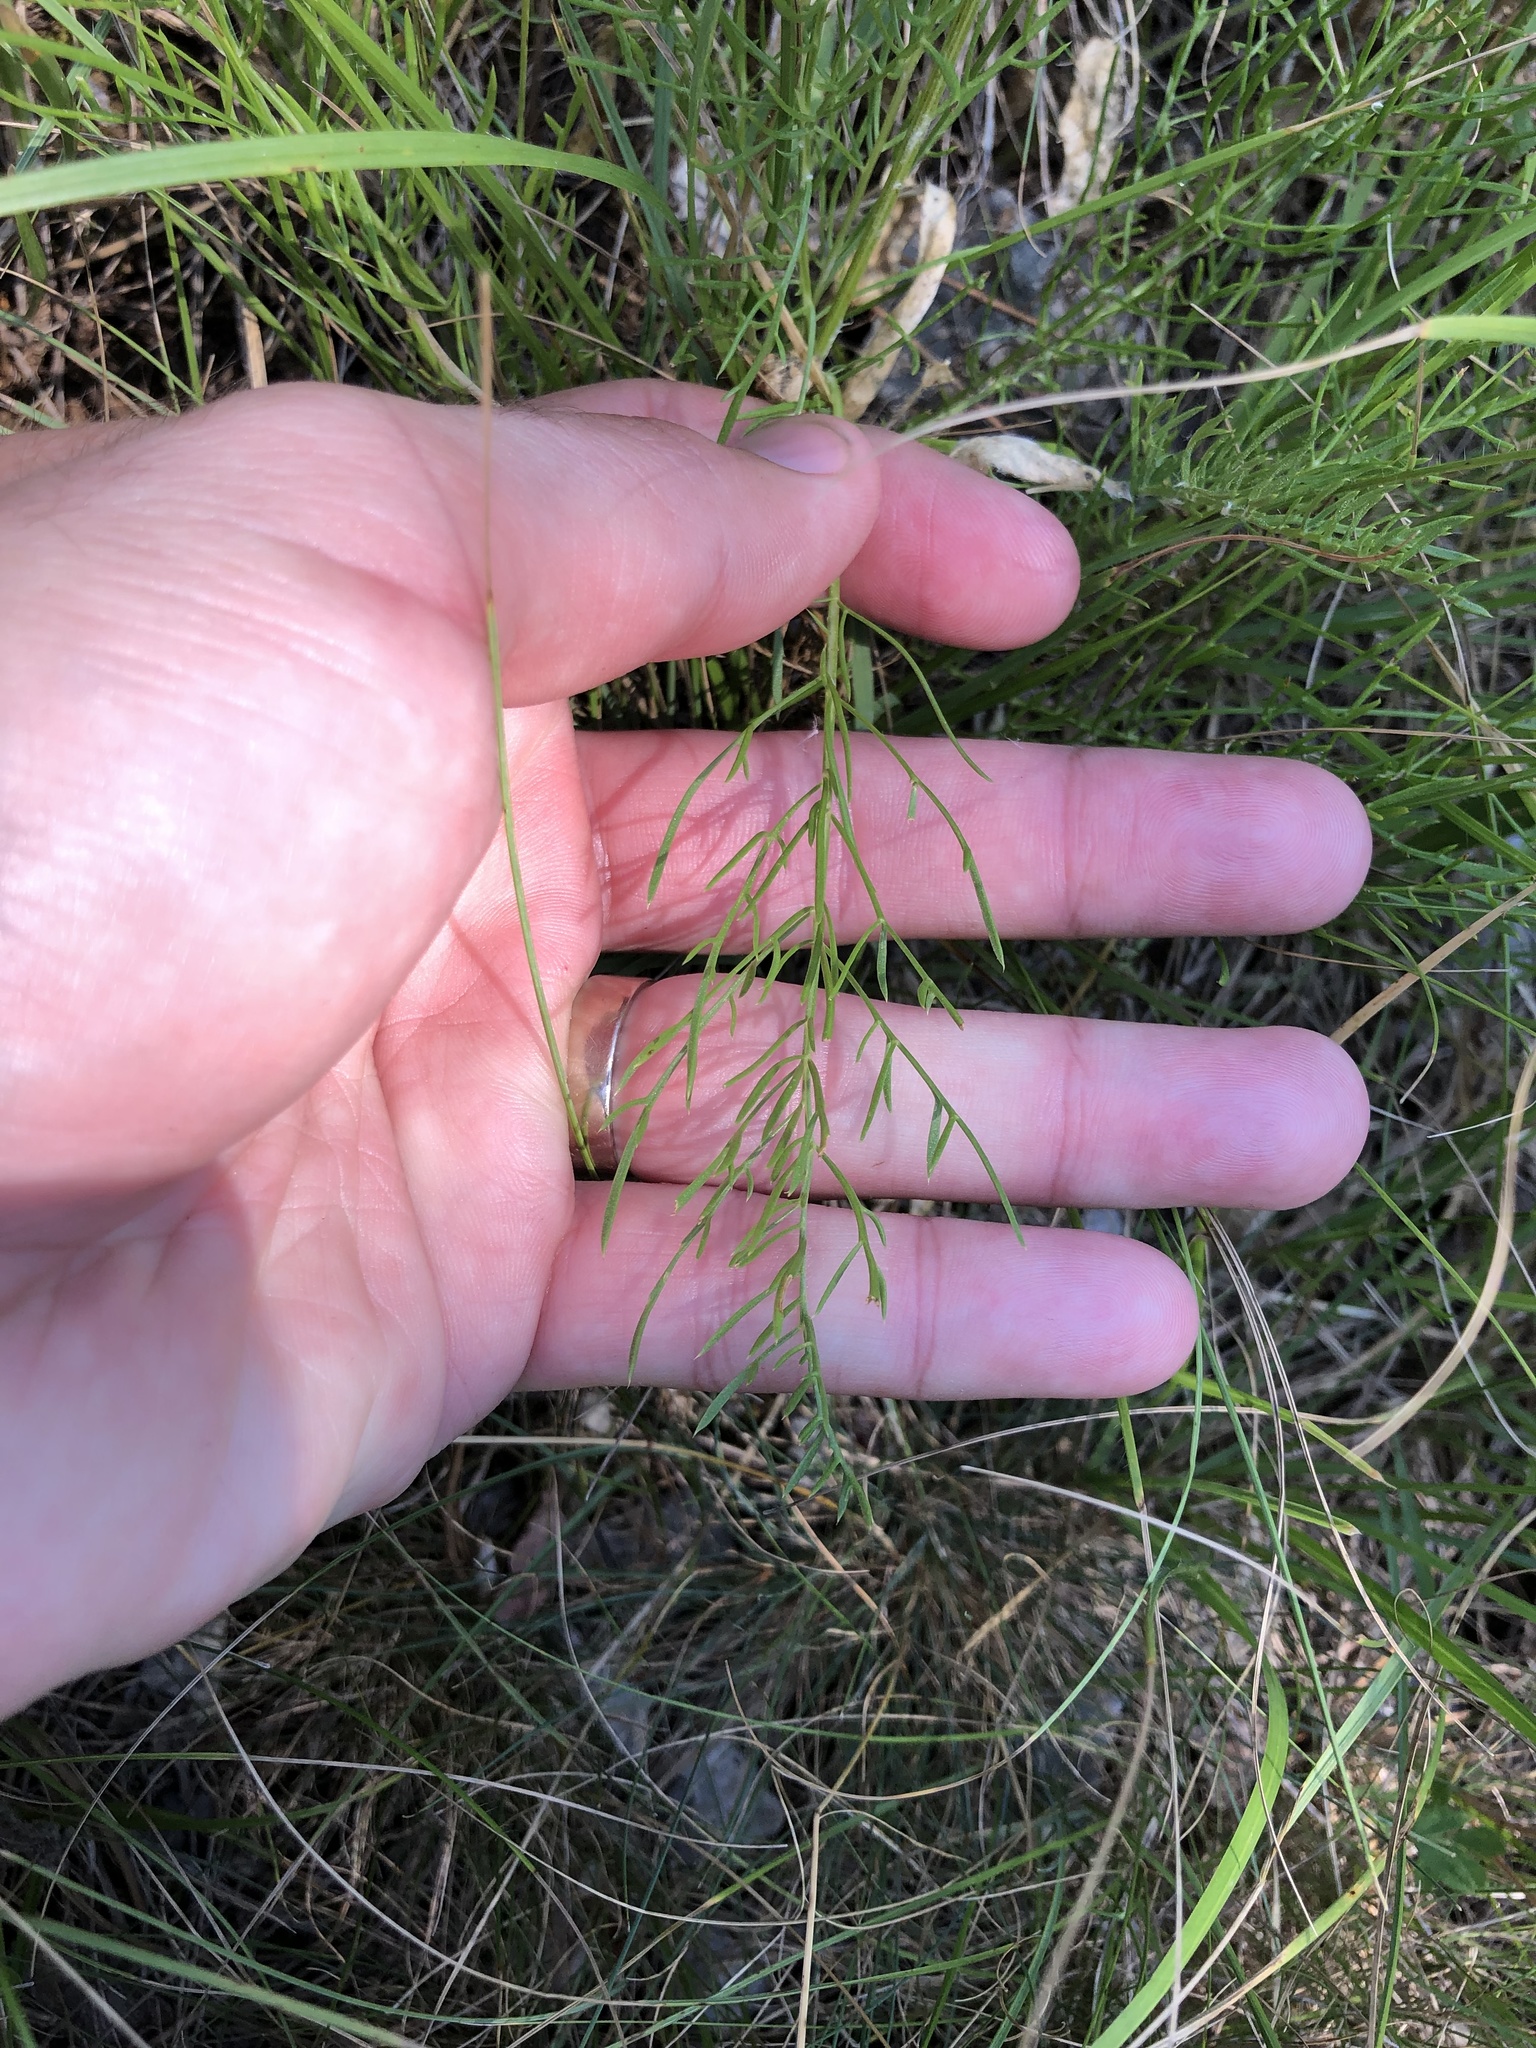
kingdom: Plantae
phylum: Tracheophyta
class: Magnoliopsida
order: Asterales
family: Asteraceae
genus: Centaurea
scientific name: Centaurea solstitialis
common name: Yellow star-thistle
